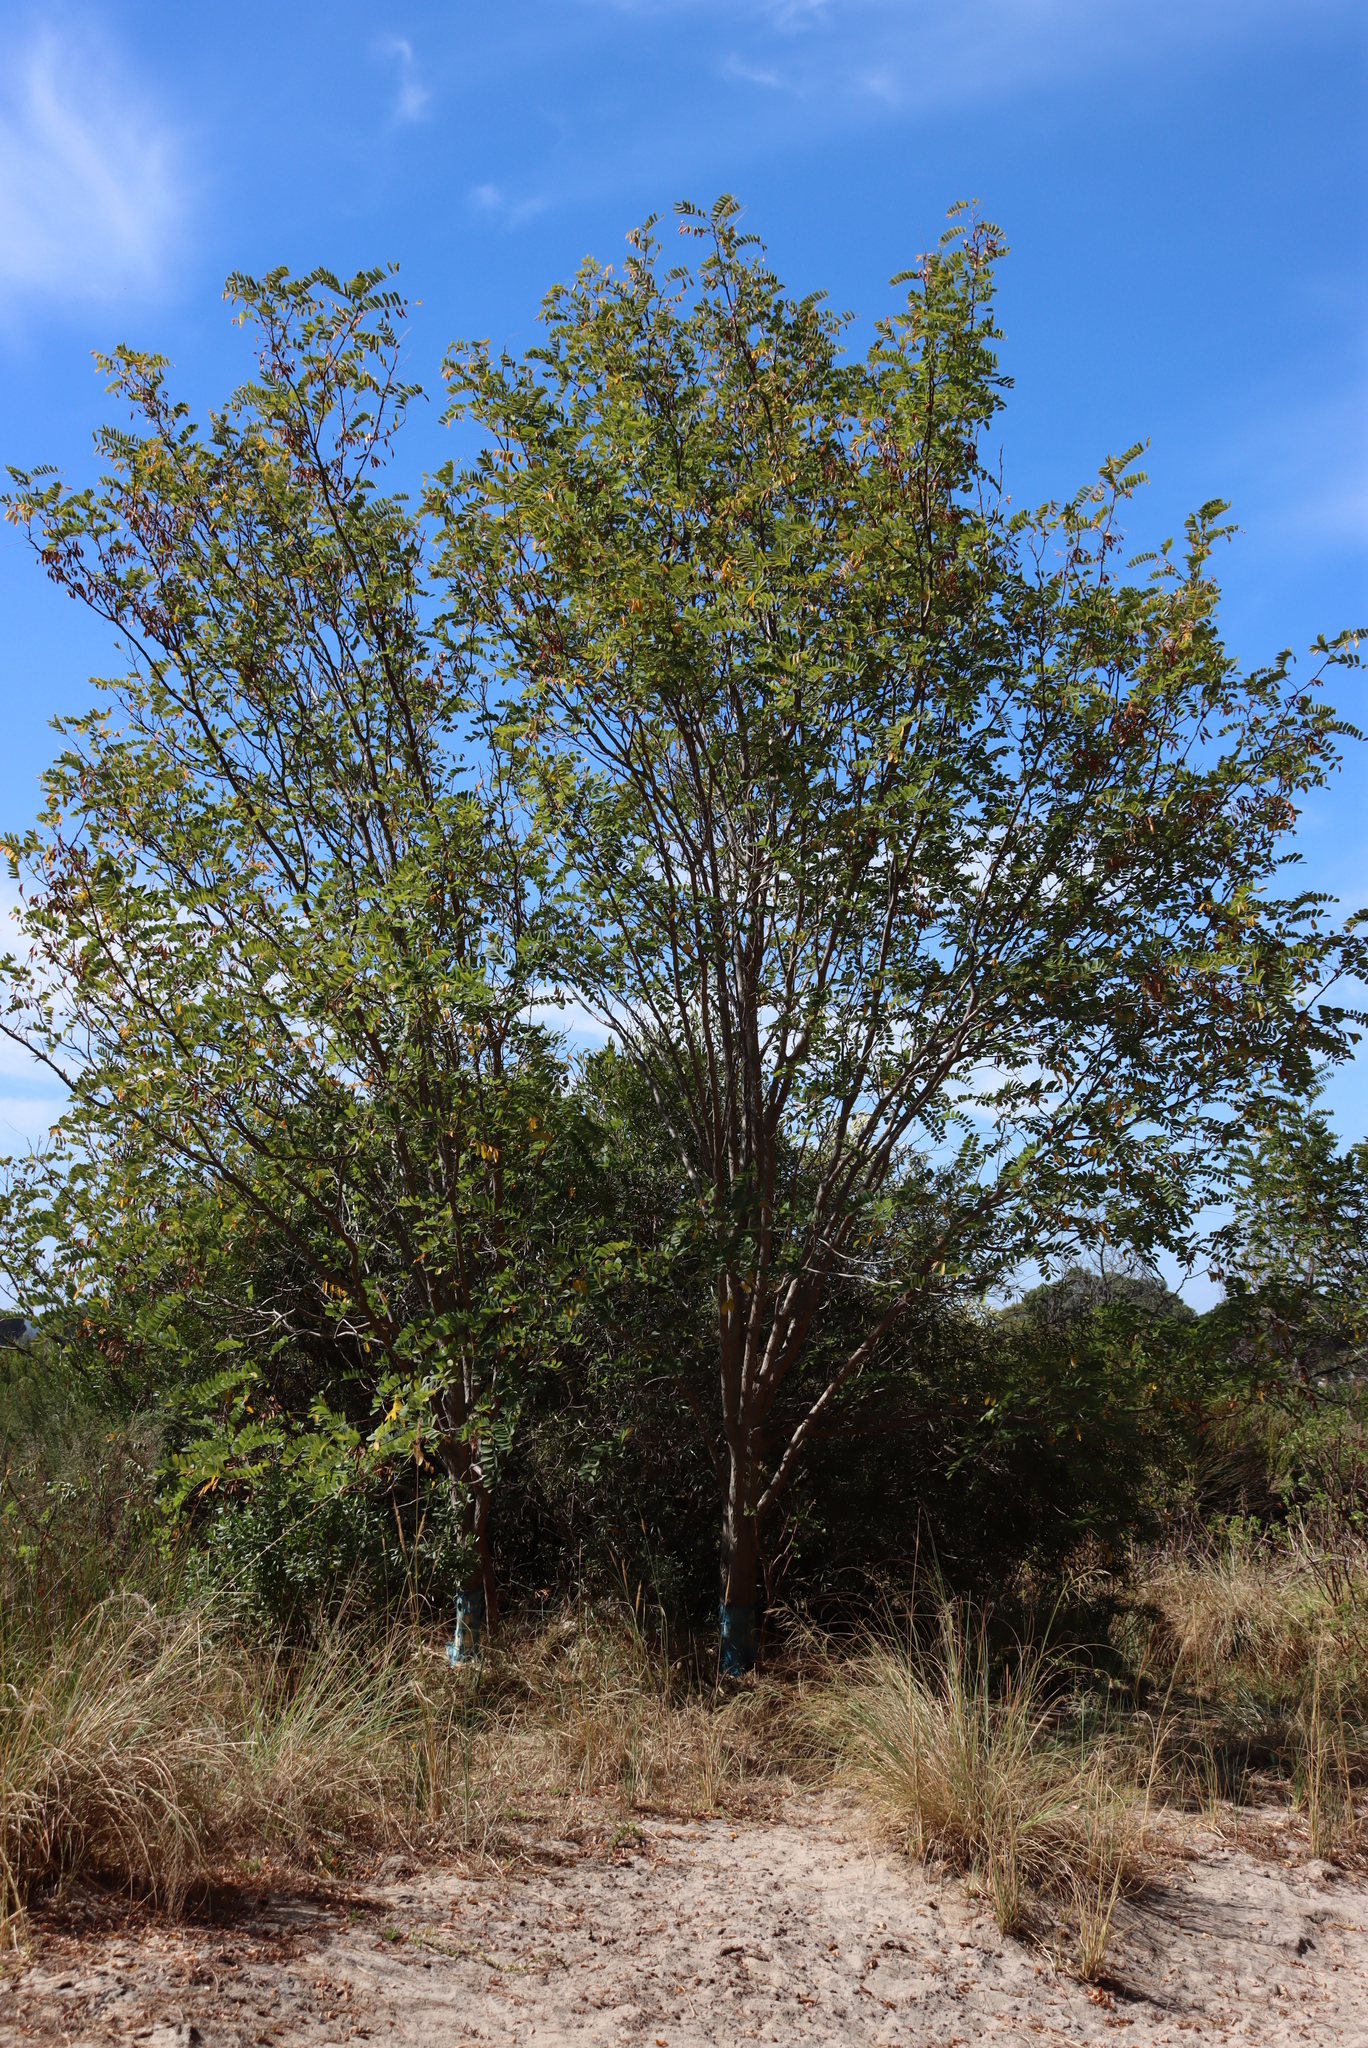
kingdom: Plantae
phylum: Tracheophyta
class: Magnoliopsida
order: Fabales
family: Fabaceae
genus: Robinia
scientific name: Robinia pseudoacacia
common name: Black locust
